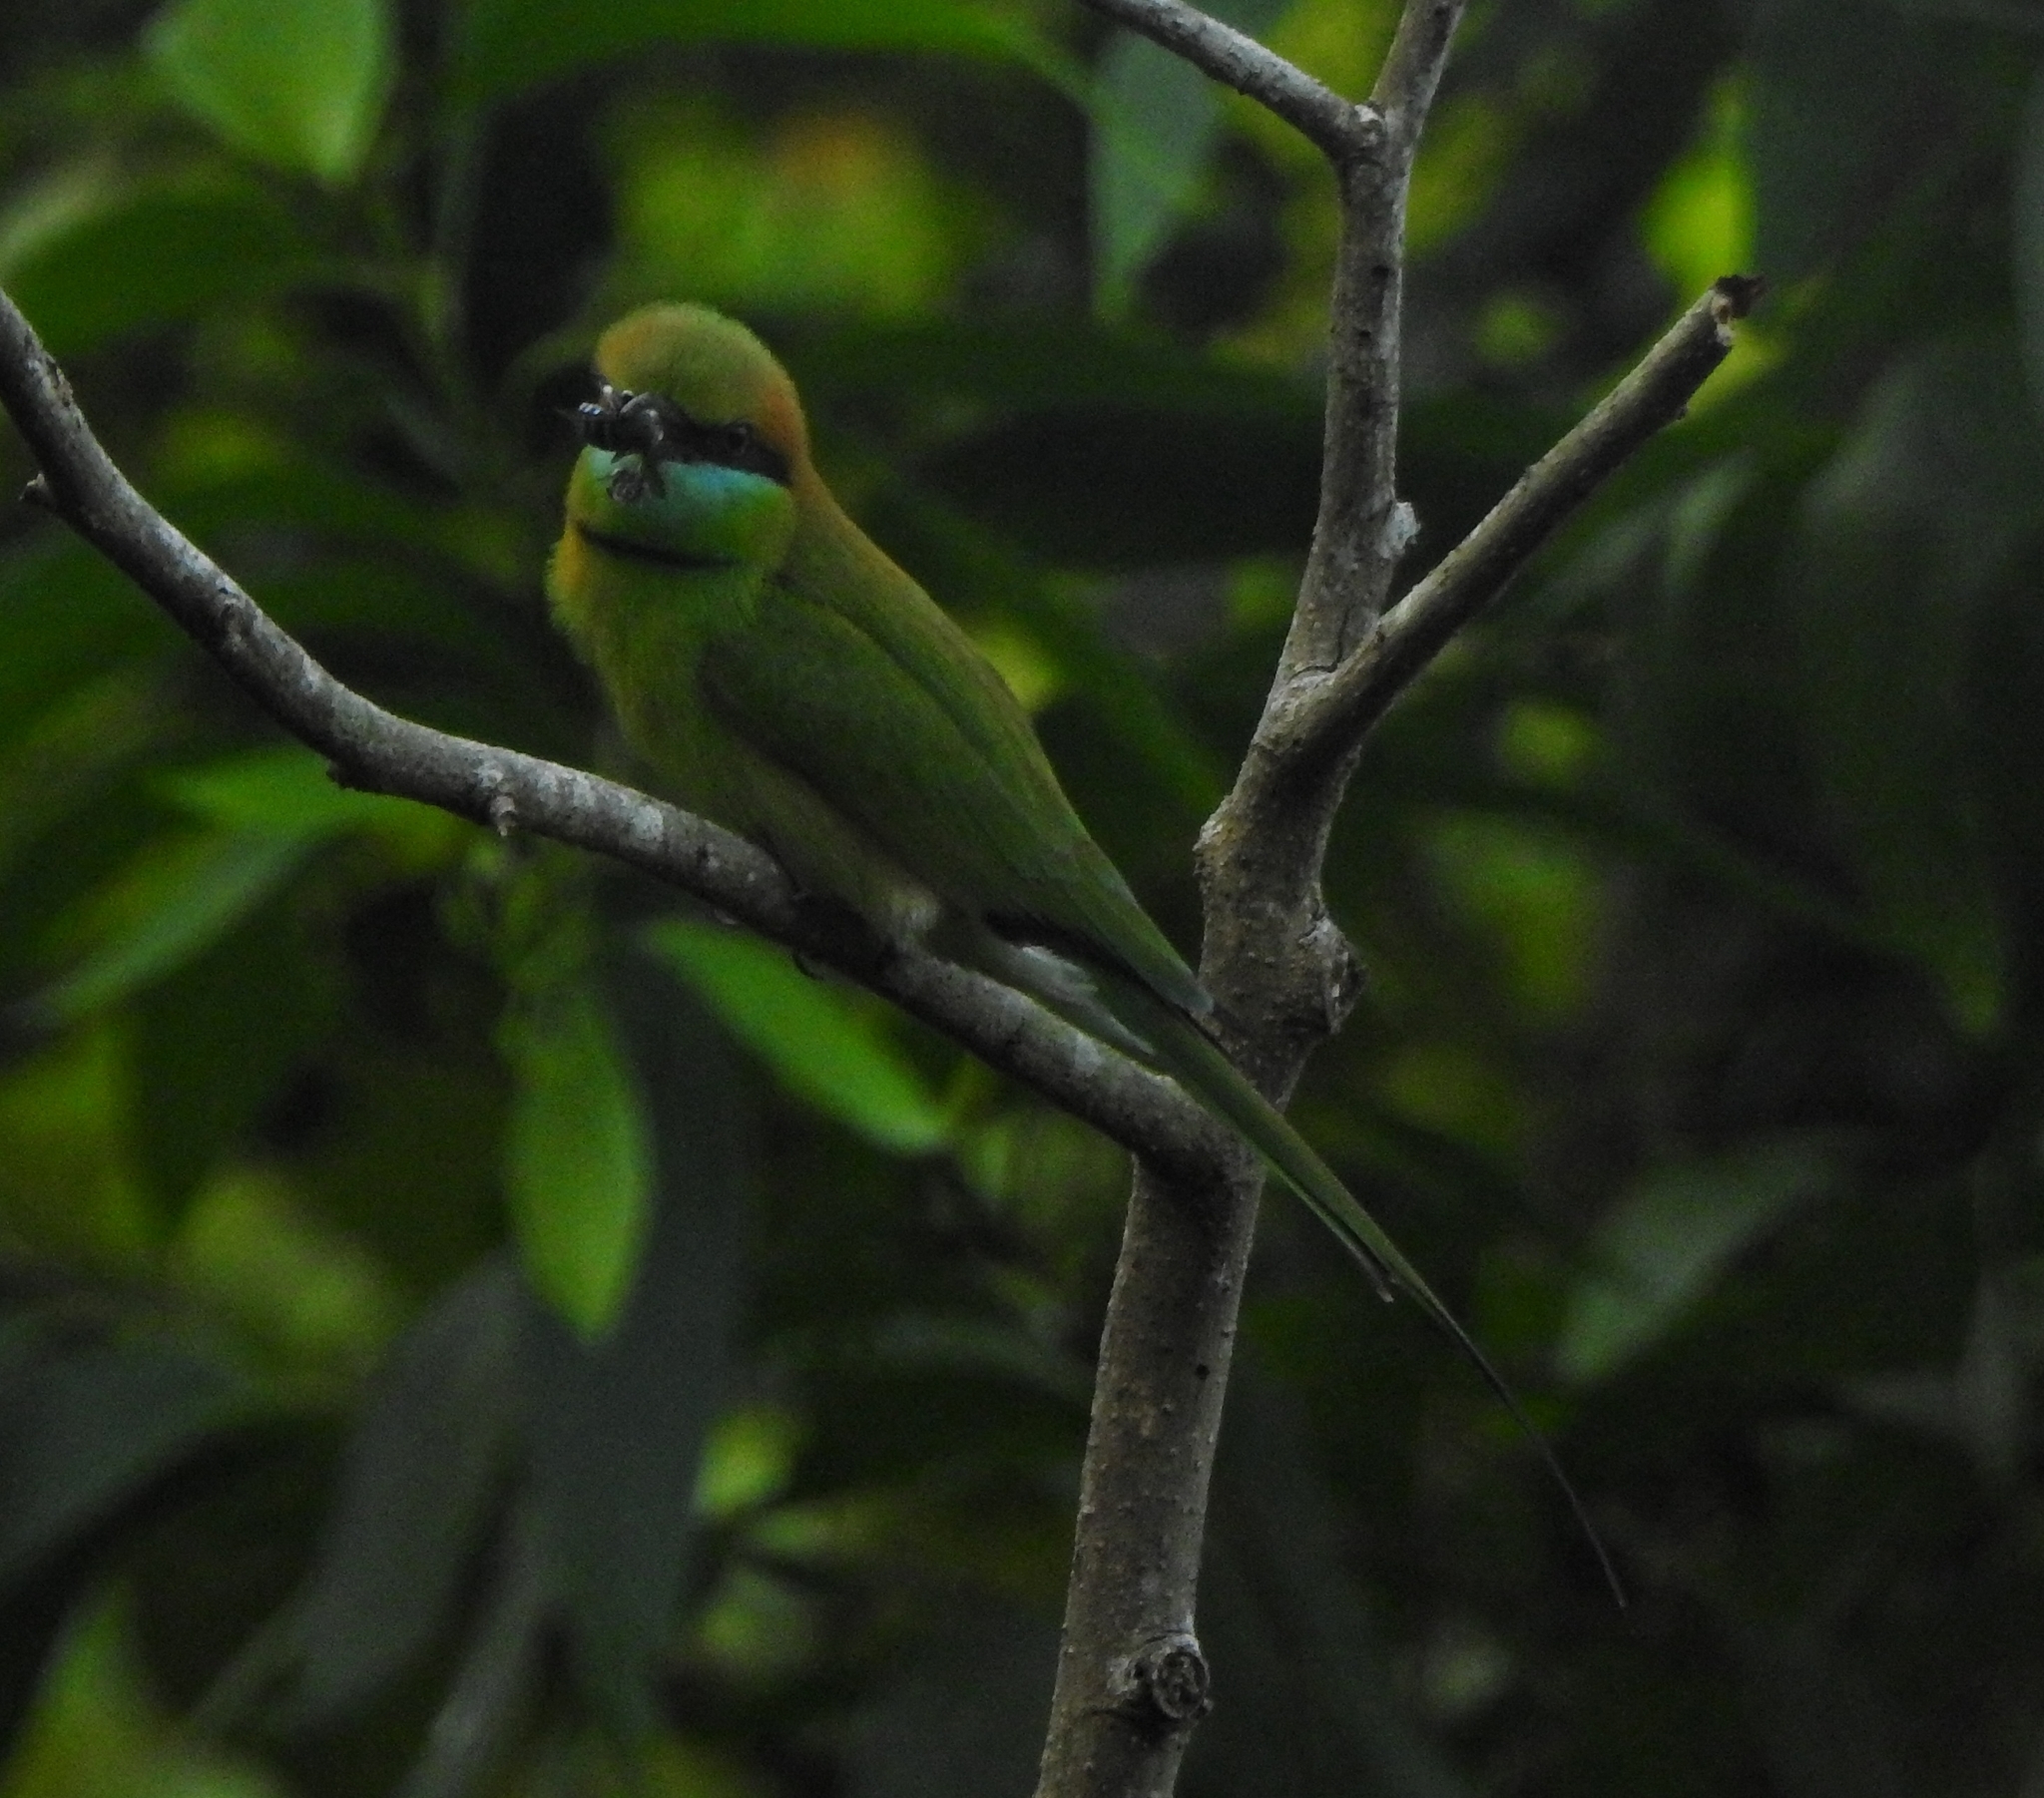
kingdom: Animalia
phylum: Chordata
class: Aves
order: Coraciiformes
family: Meropidae
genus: Merops
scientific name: Merops orientalis
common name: Green bee-eater
